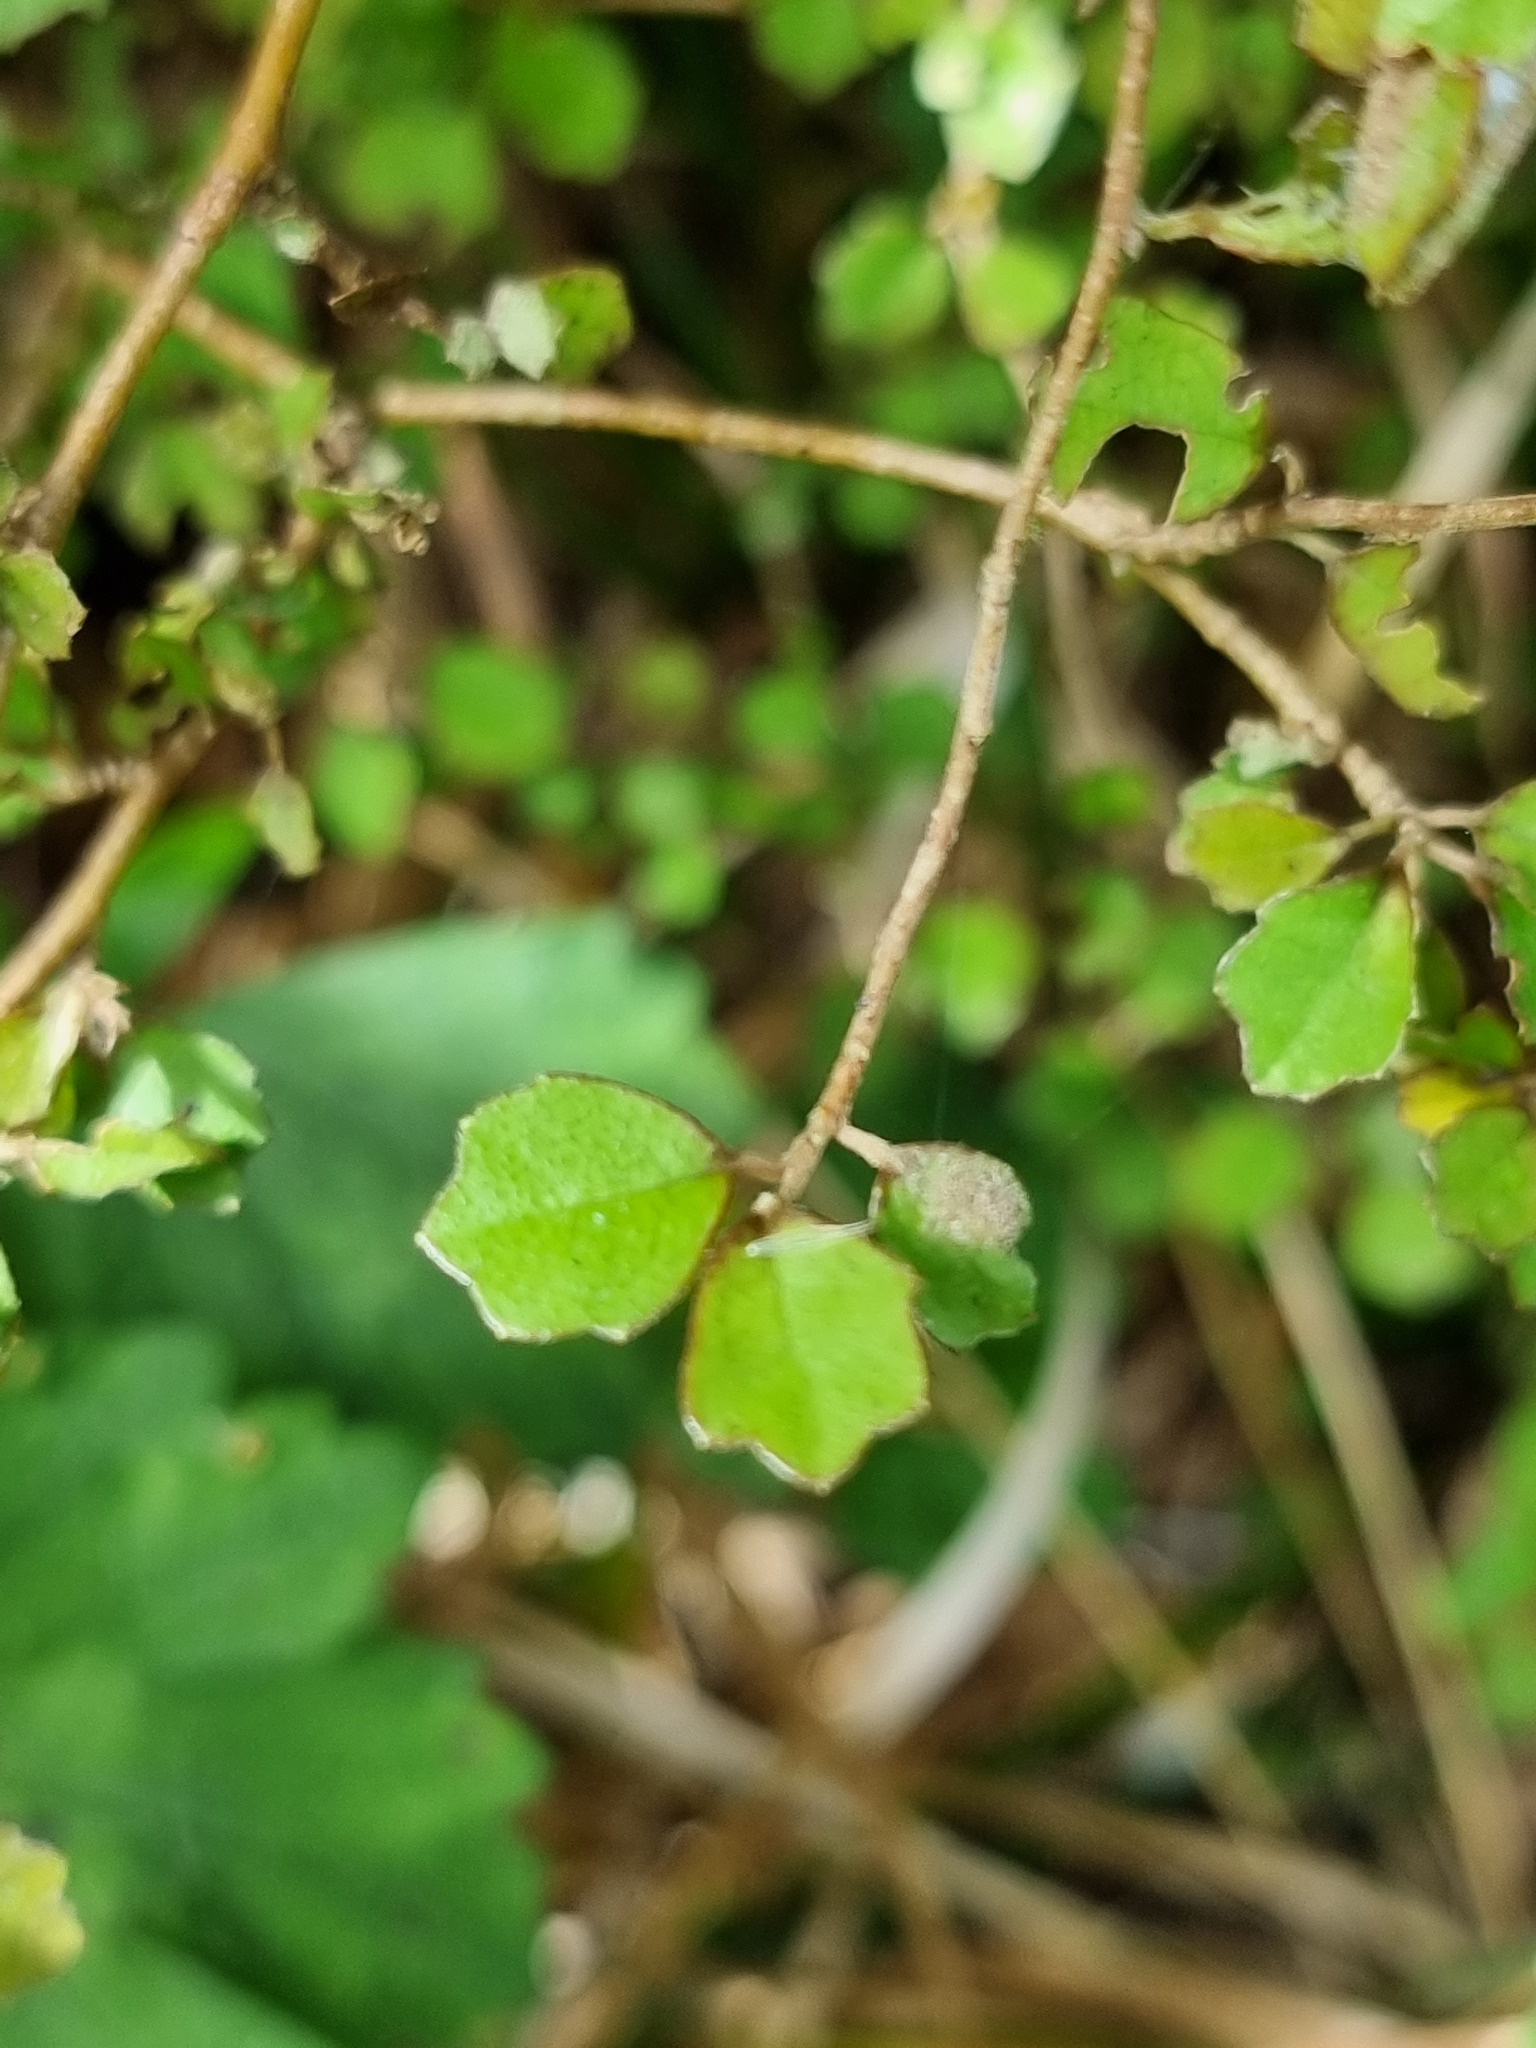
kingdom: Plantae
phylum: Tracheophyta
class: Magnoliopsida
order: Apiales
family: Pennantiaceae
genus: Pennantia
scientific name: Pennantia corymbosa
